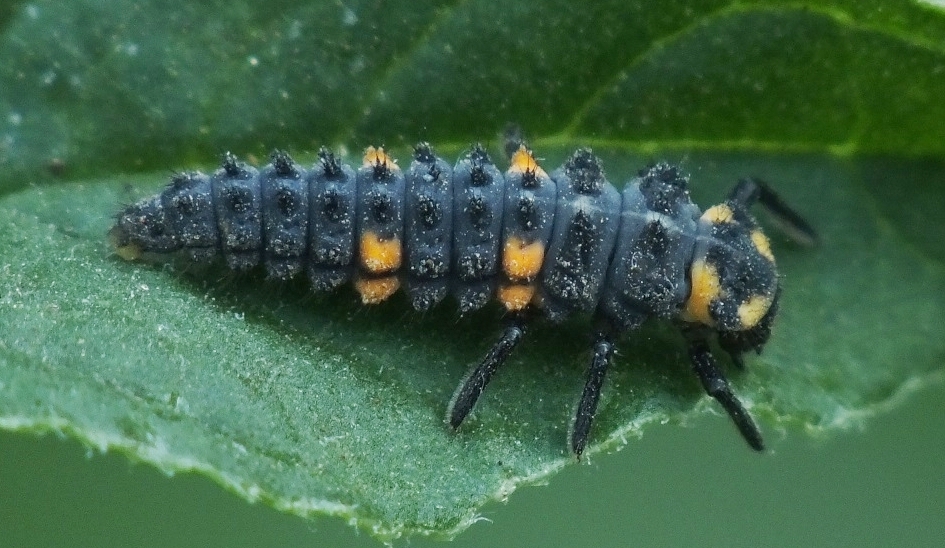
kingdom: Animalia
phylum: Arthropoda
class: Insecta
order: Coleoptera
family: Coccinellidae
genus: Coccinella
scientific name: Coccinella septempunctata
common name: Sevenspotted lady beetle
